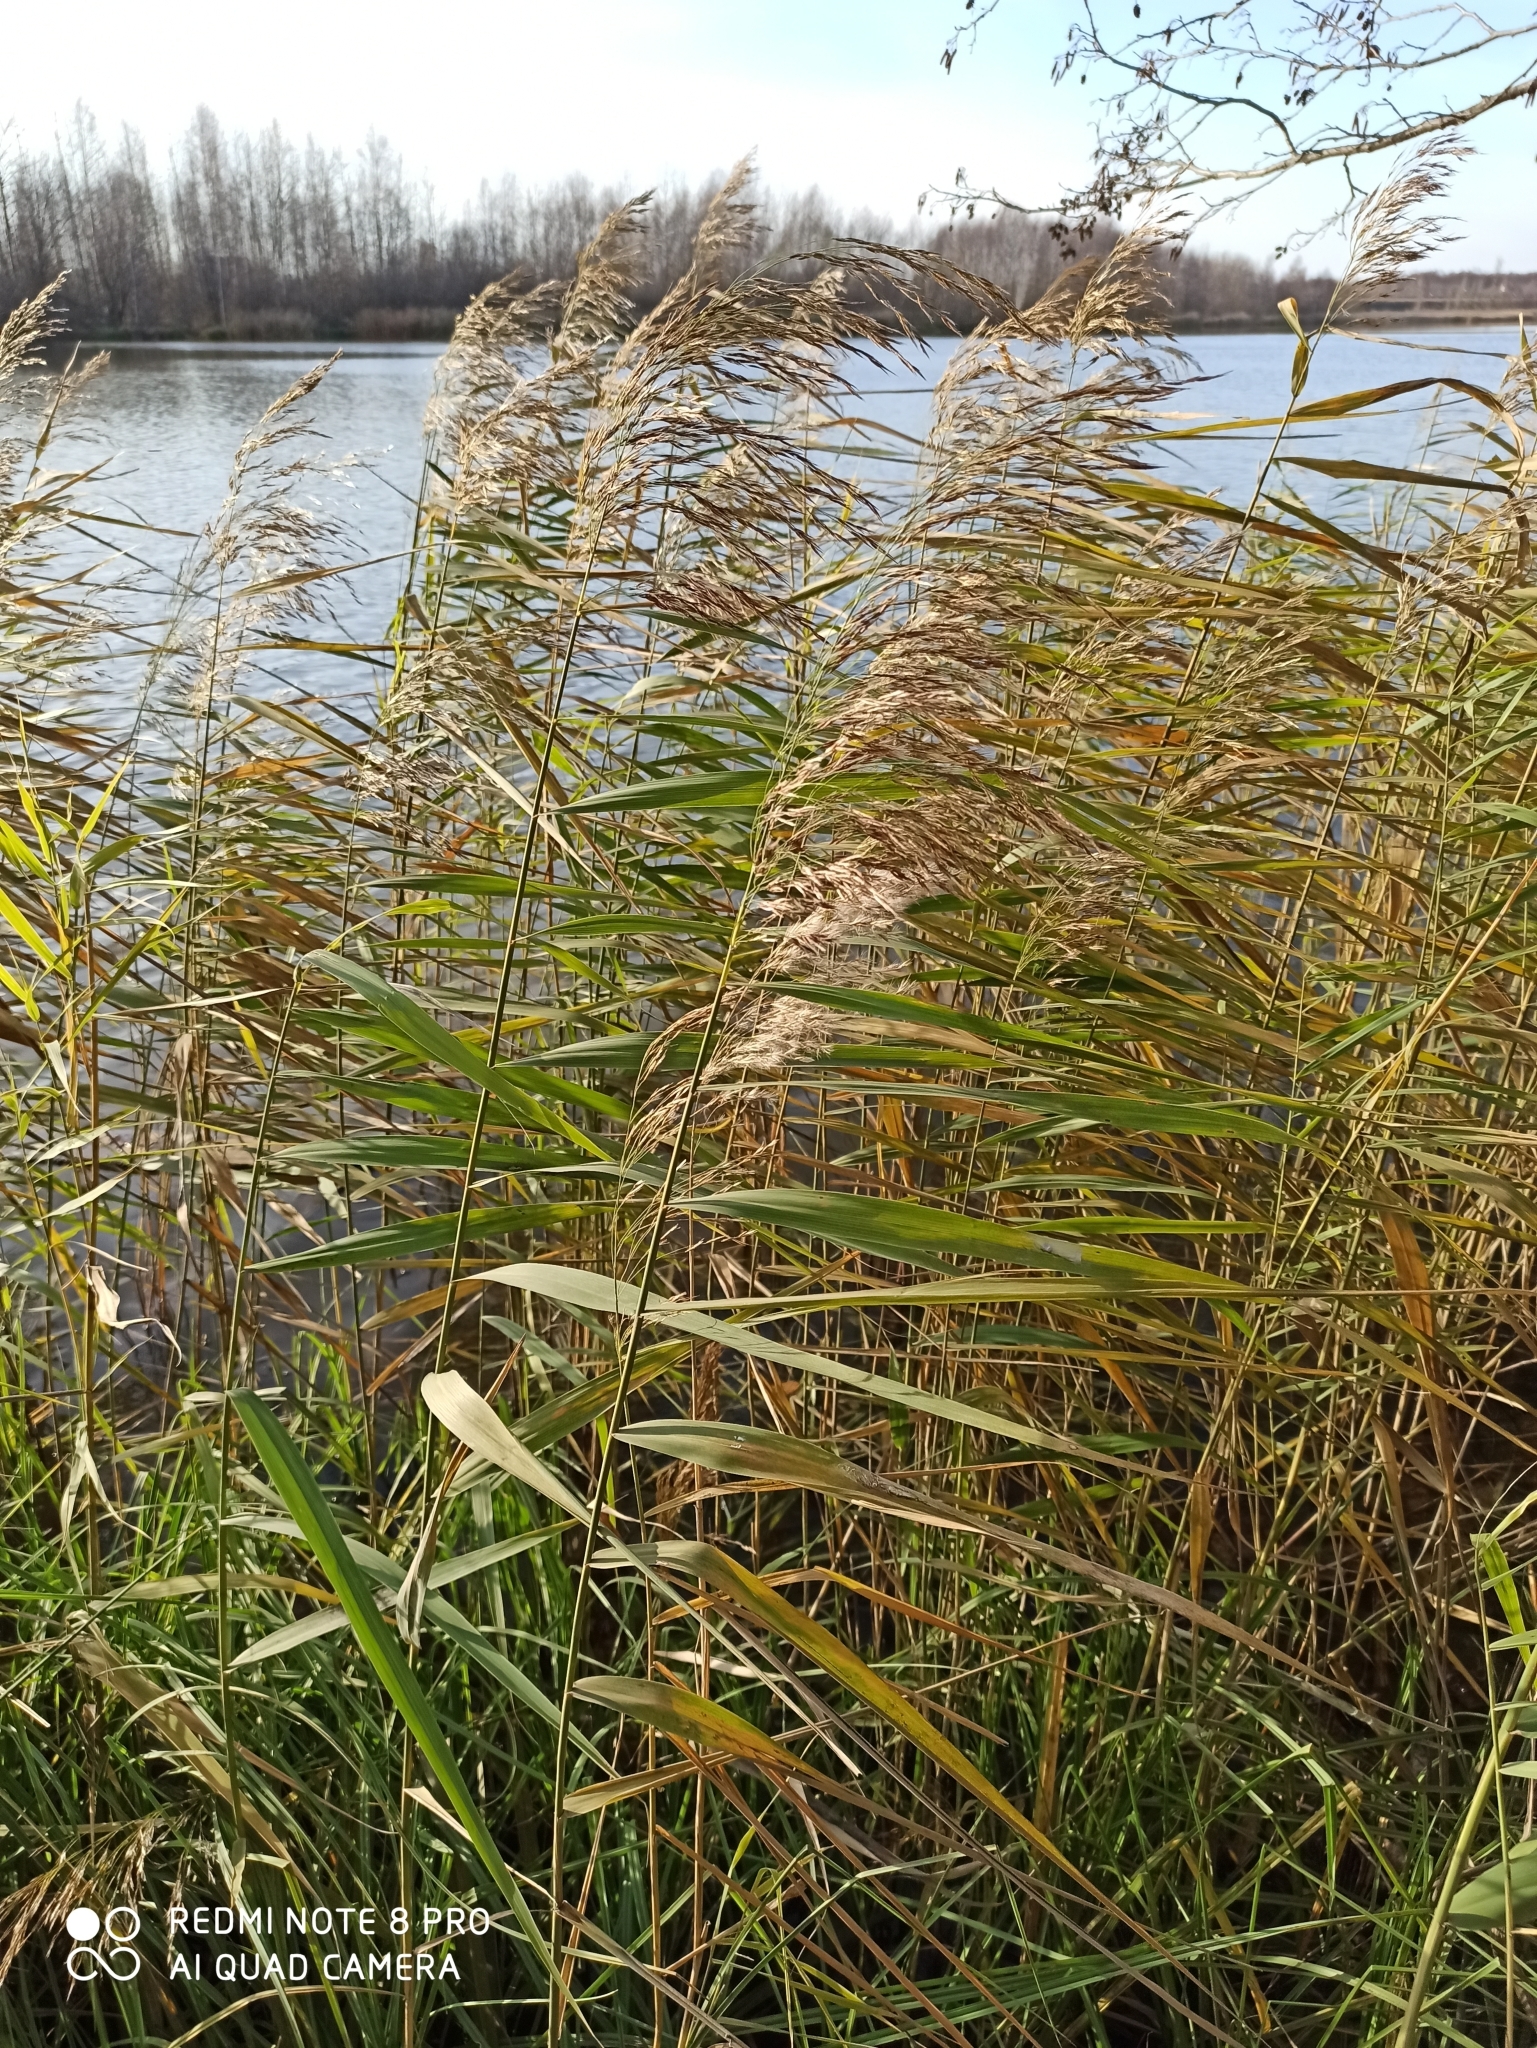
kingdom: Plantae
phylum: Tracheophyta
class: Liliopsida
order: Poales
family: Poaceae
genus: Phragmites
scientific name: Phragmites australis
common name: Common reed
